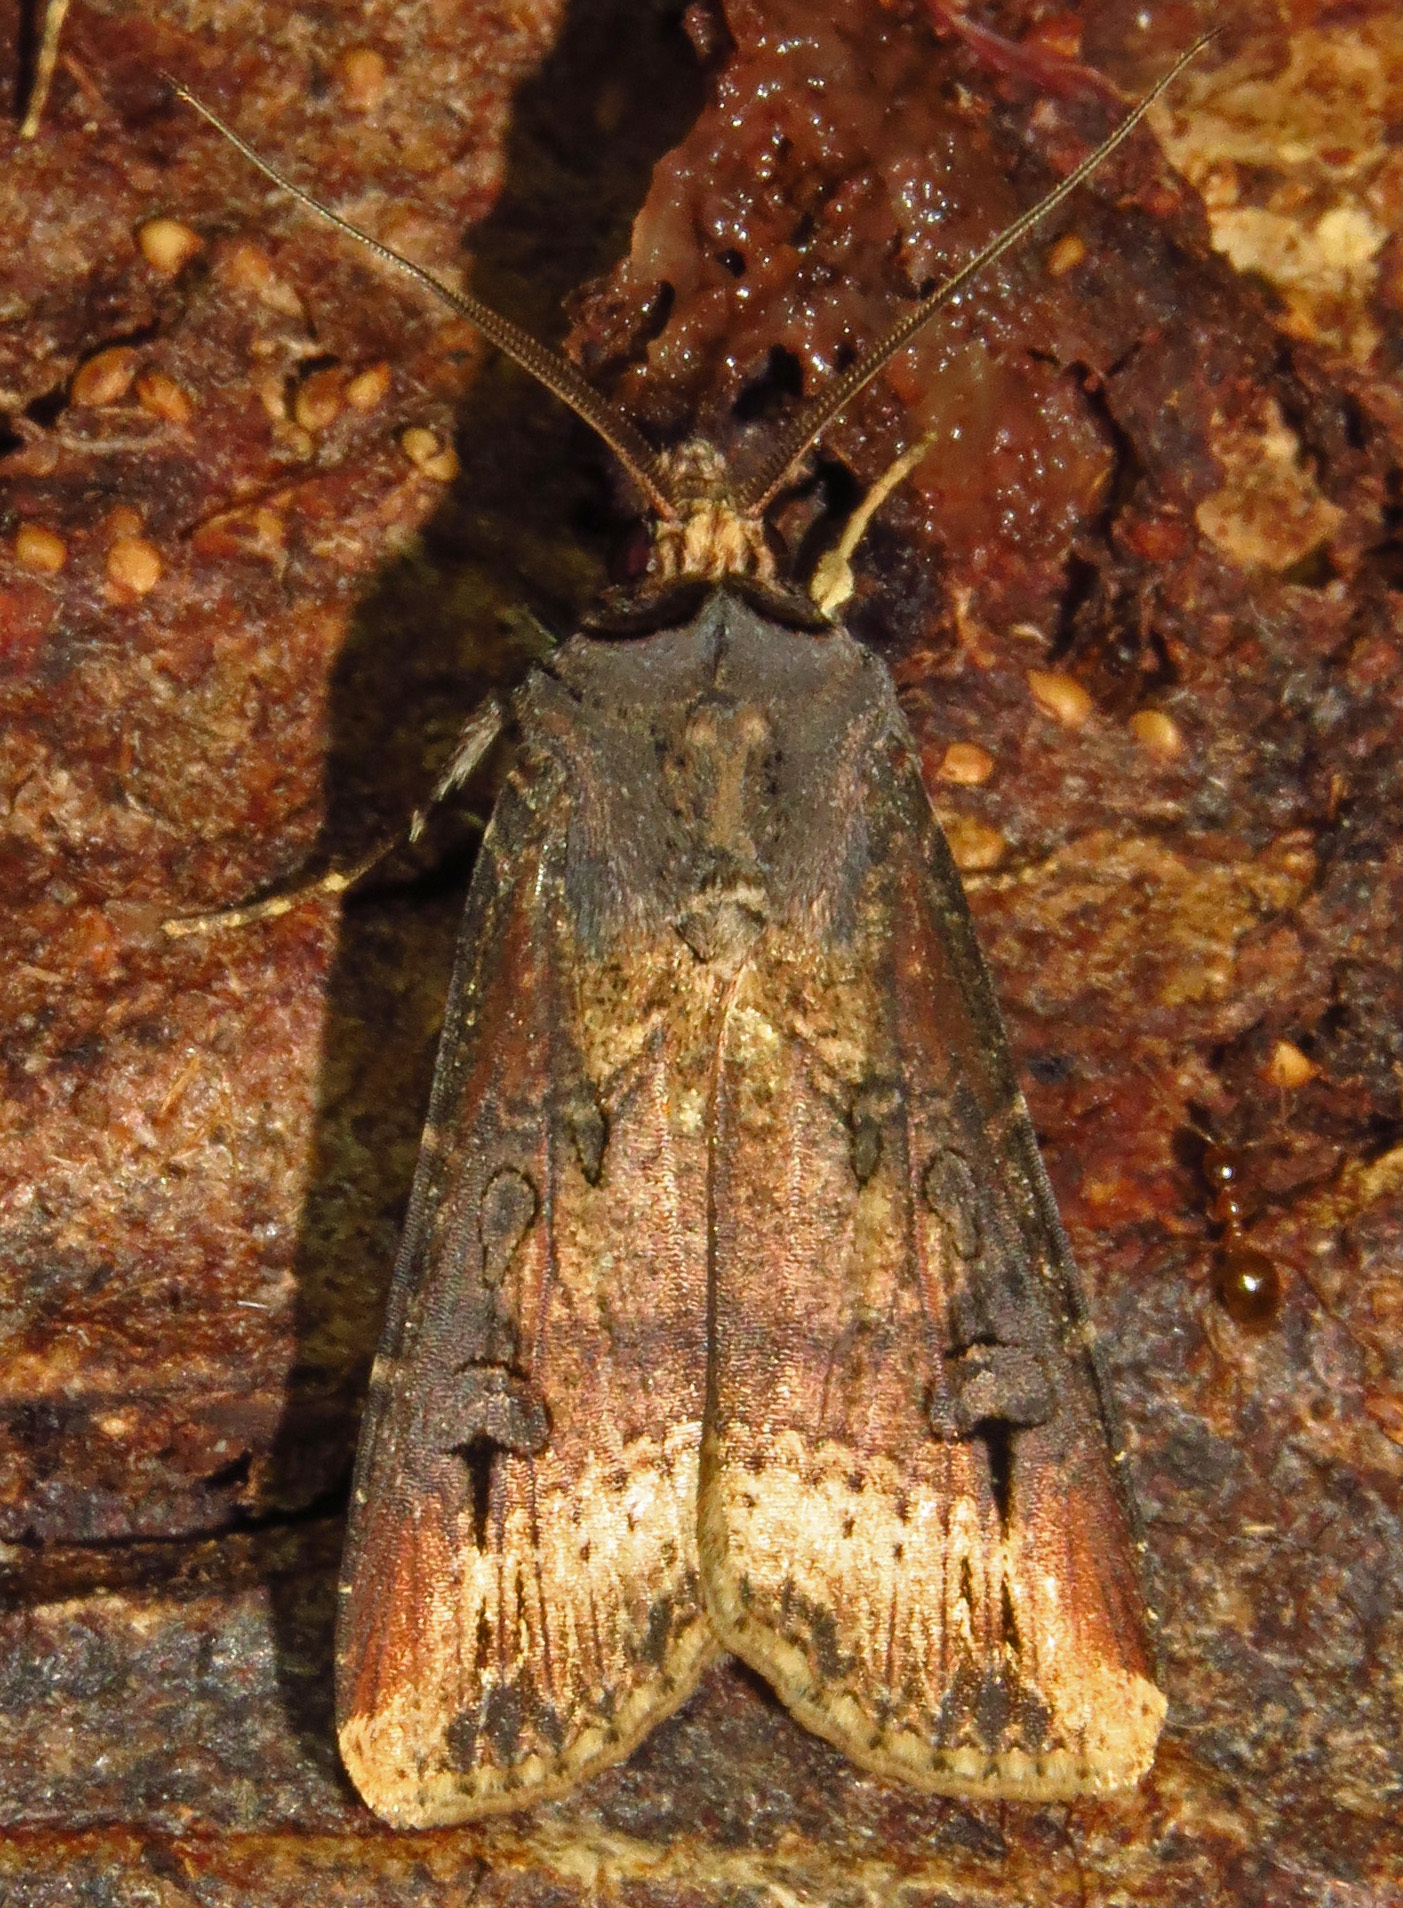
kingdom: Animalia
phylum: Arthropoda
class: Insecta
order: Lepidoptera
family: Noctuidae
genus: Agrotis
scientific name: Agrotis ipsilon
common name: Dark sword-grass
